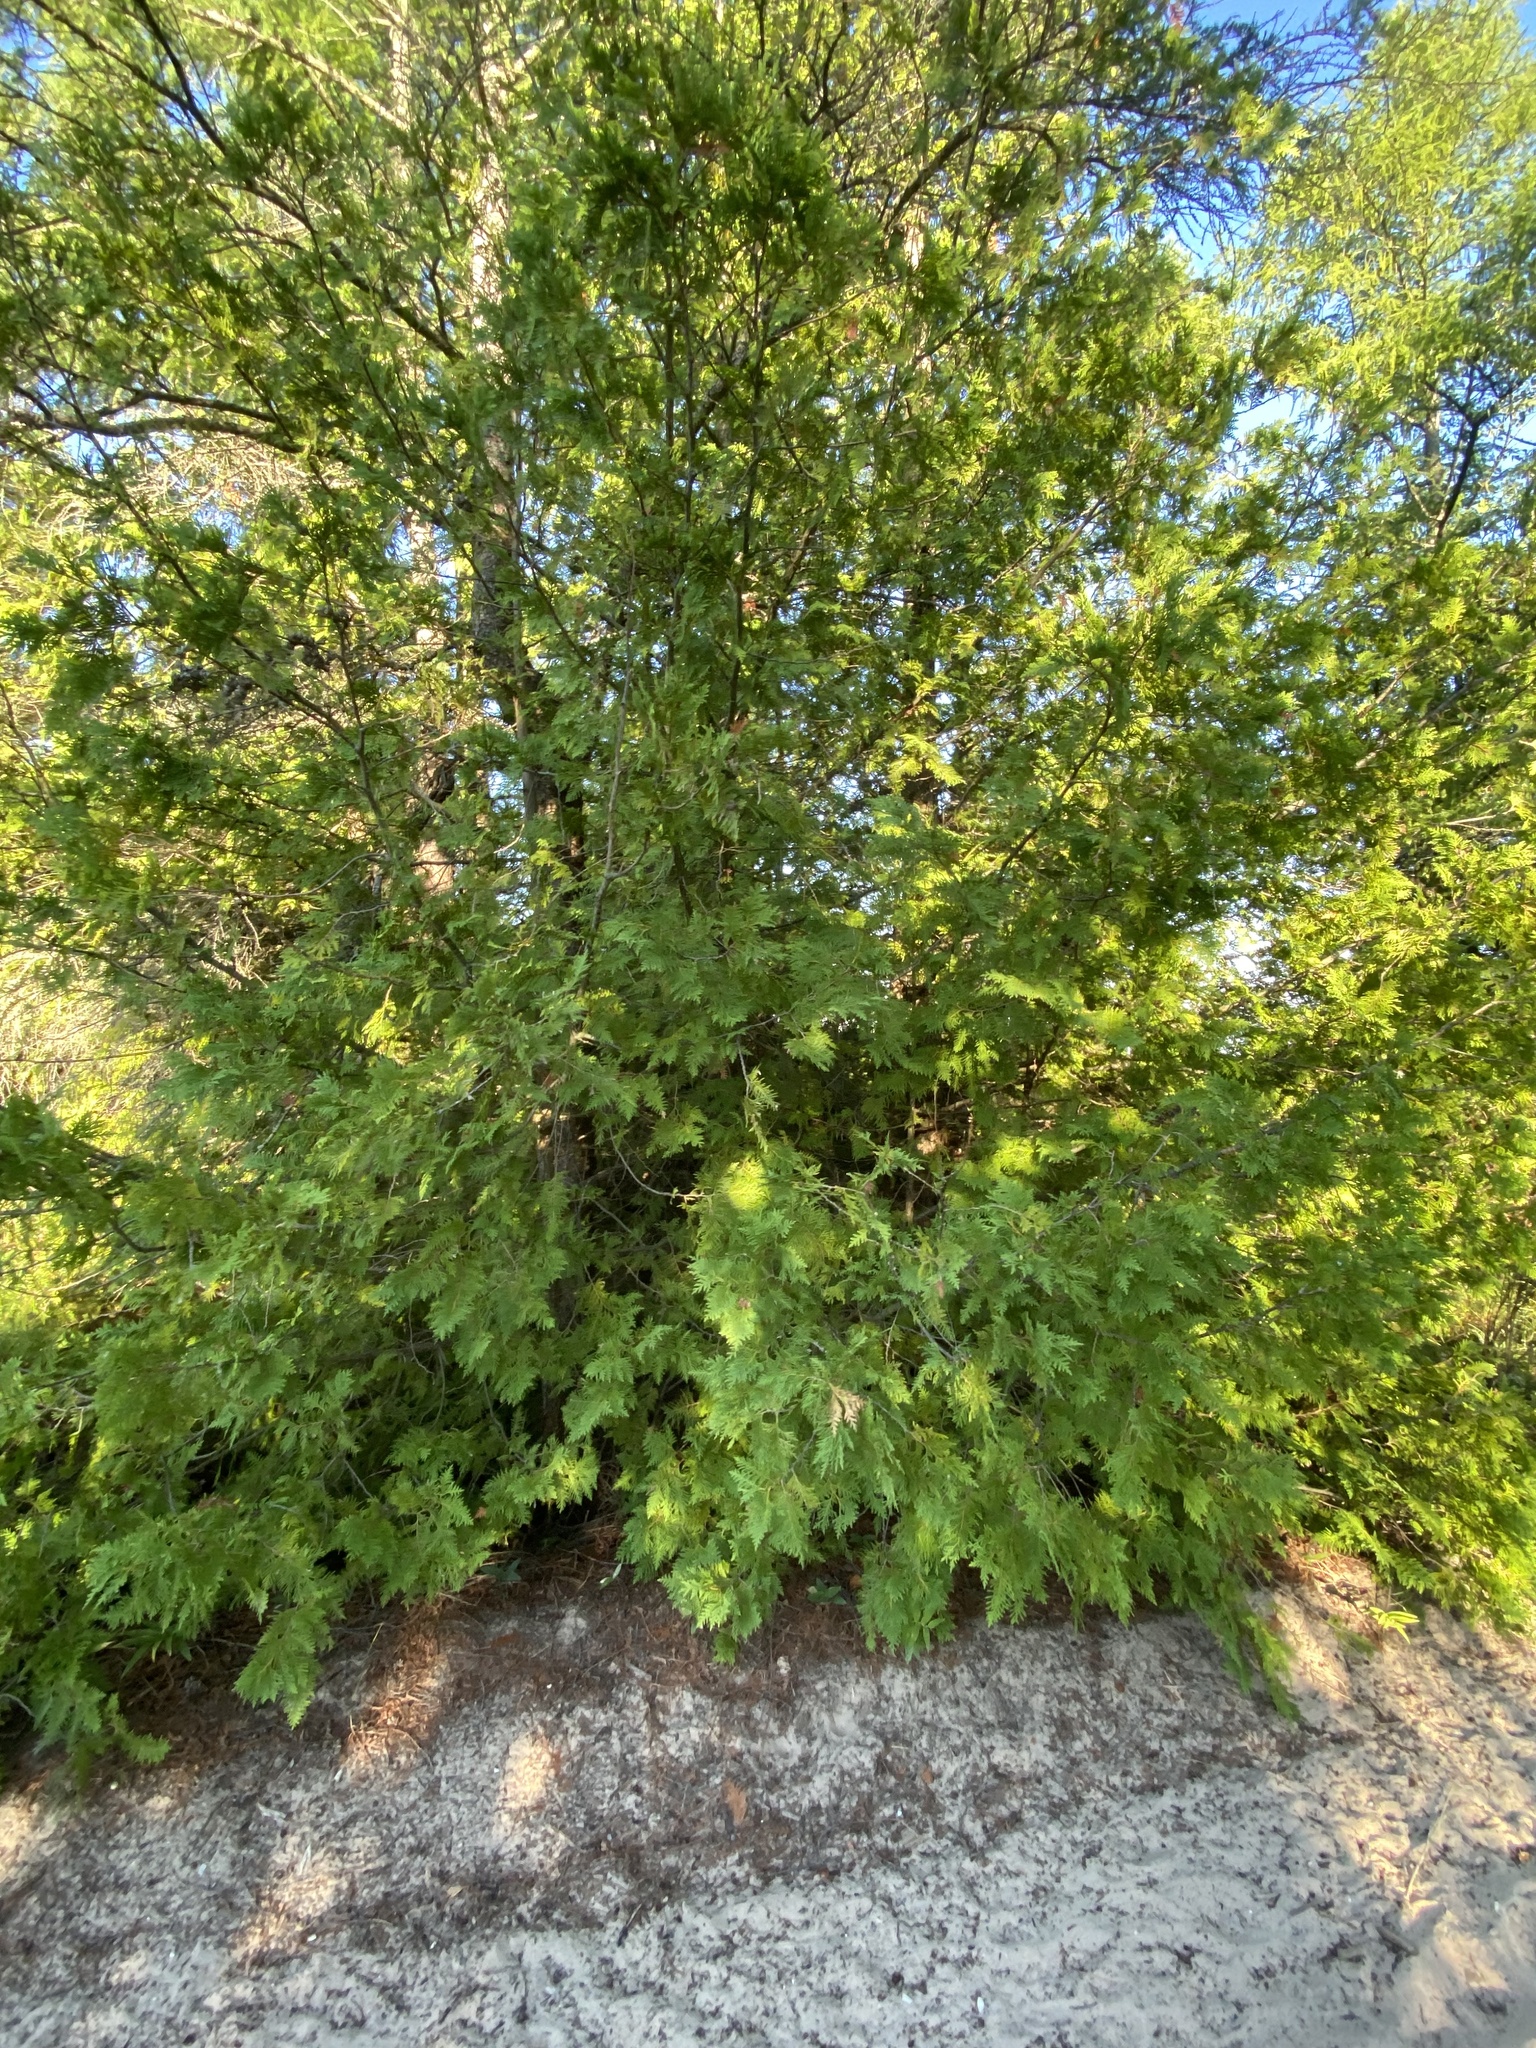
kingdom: Plantae
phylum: Tracheophyta
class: Pinopsida
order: Pinales
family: Cupressaceae
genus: Thuja
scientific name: Thuja occidentalis
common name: Northern white-cedar
